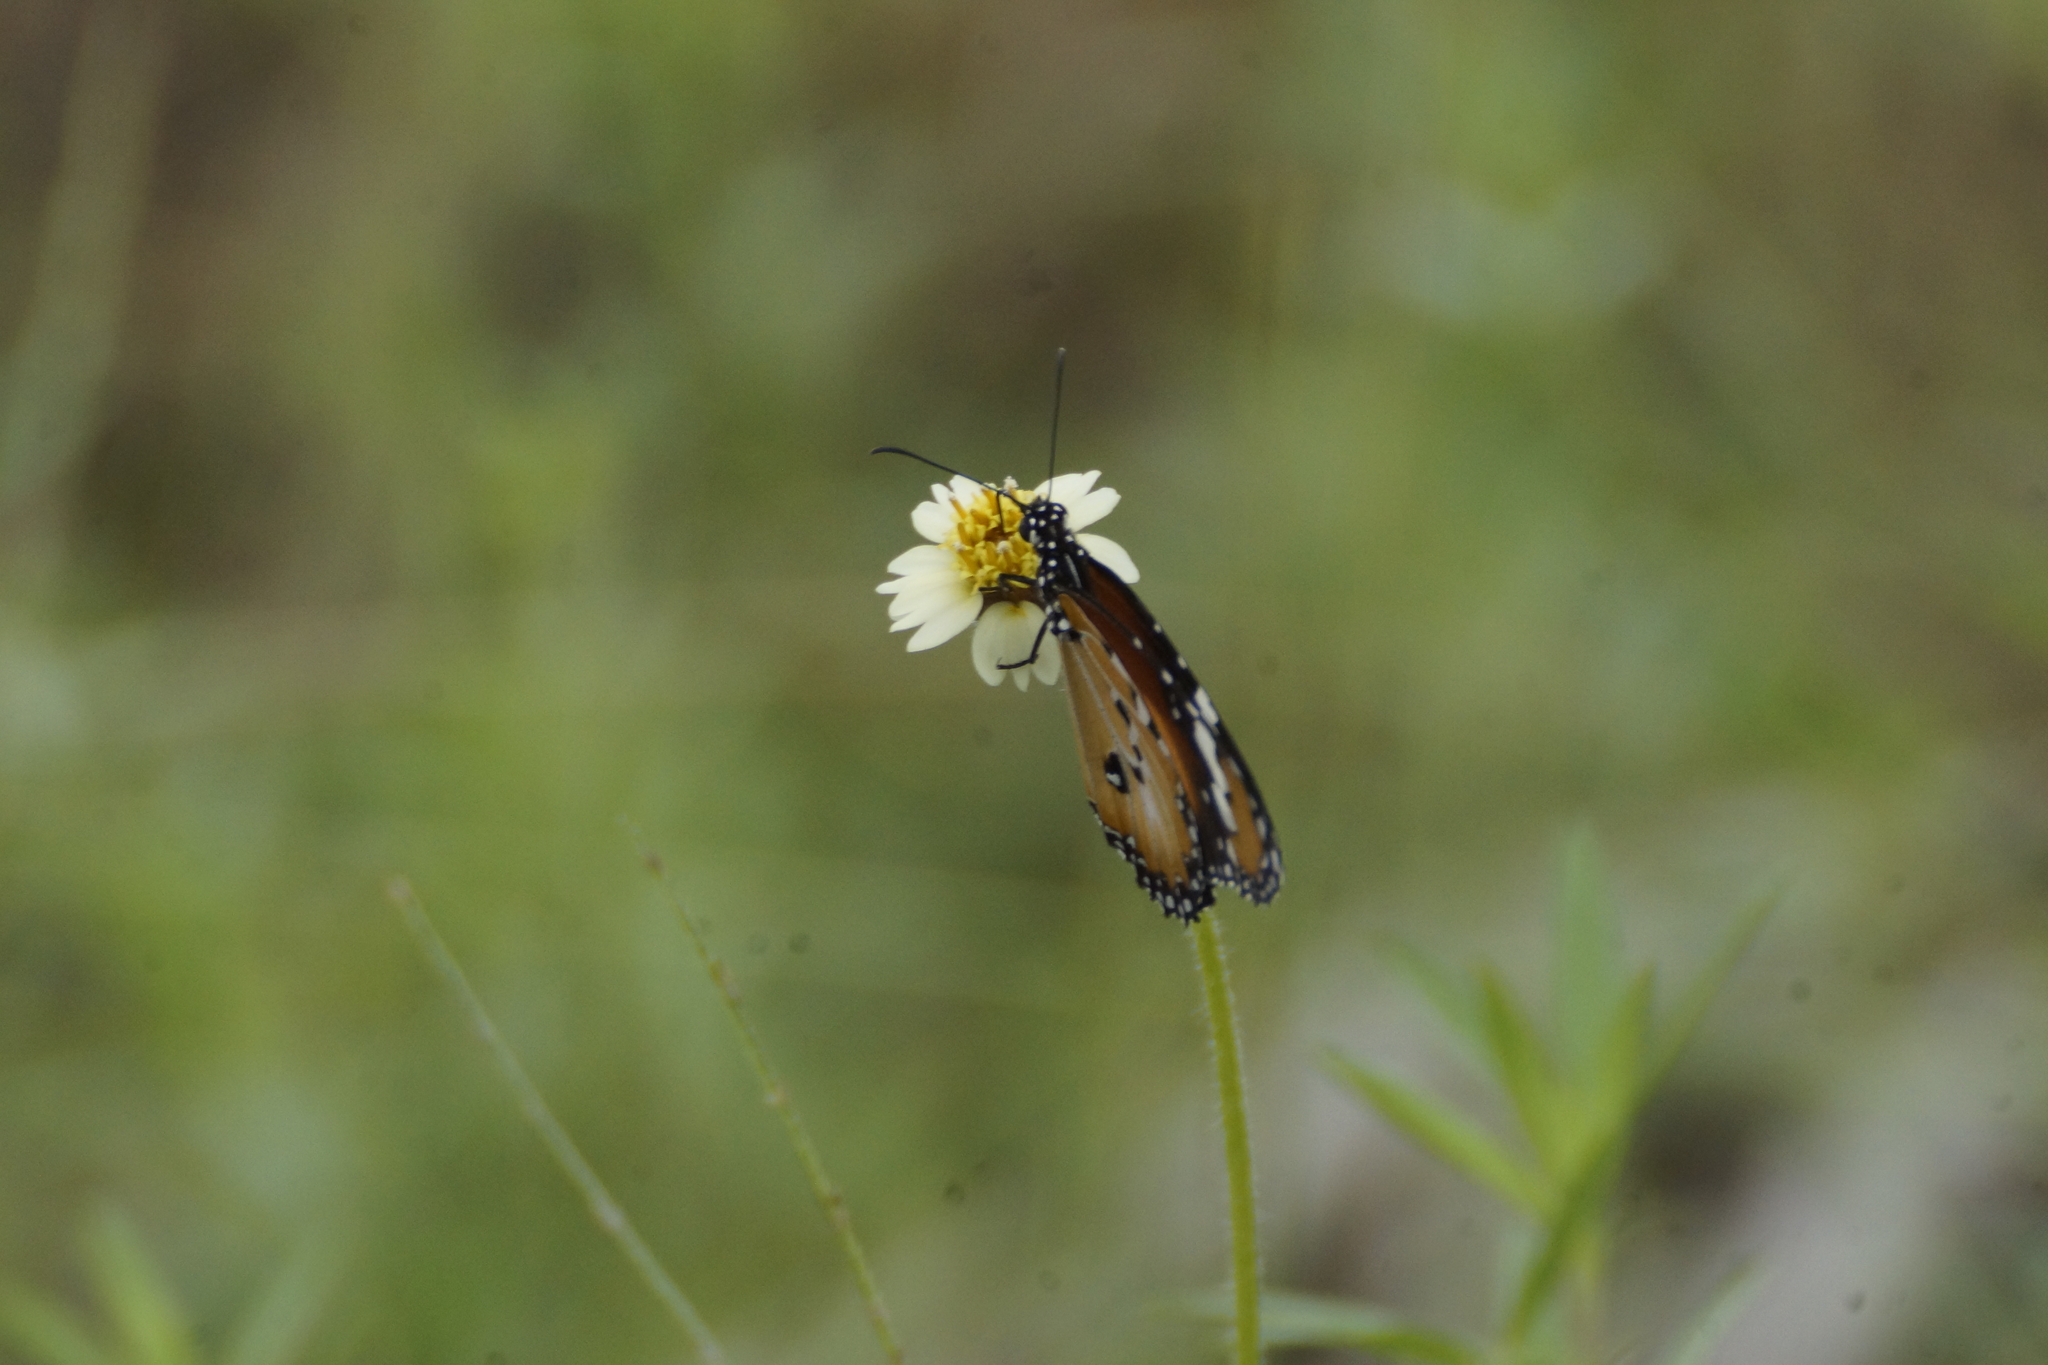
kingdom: Animalia
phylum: Arthropoda
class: Insecta
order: Lepidoptera
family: Nymphalidae
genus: Danaus
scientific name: Danaus chrysippus
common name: Plain tiger
